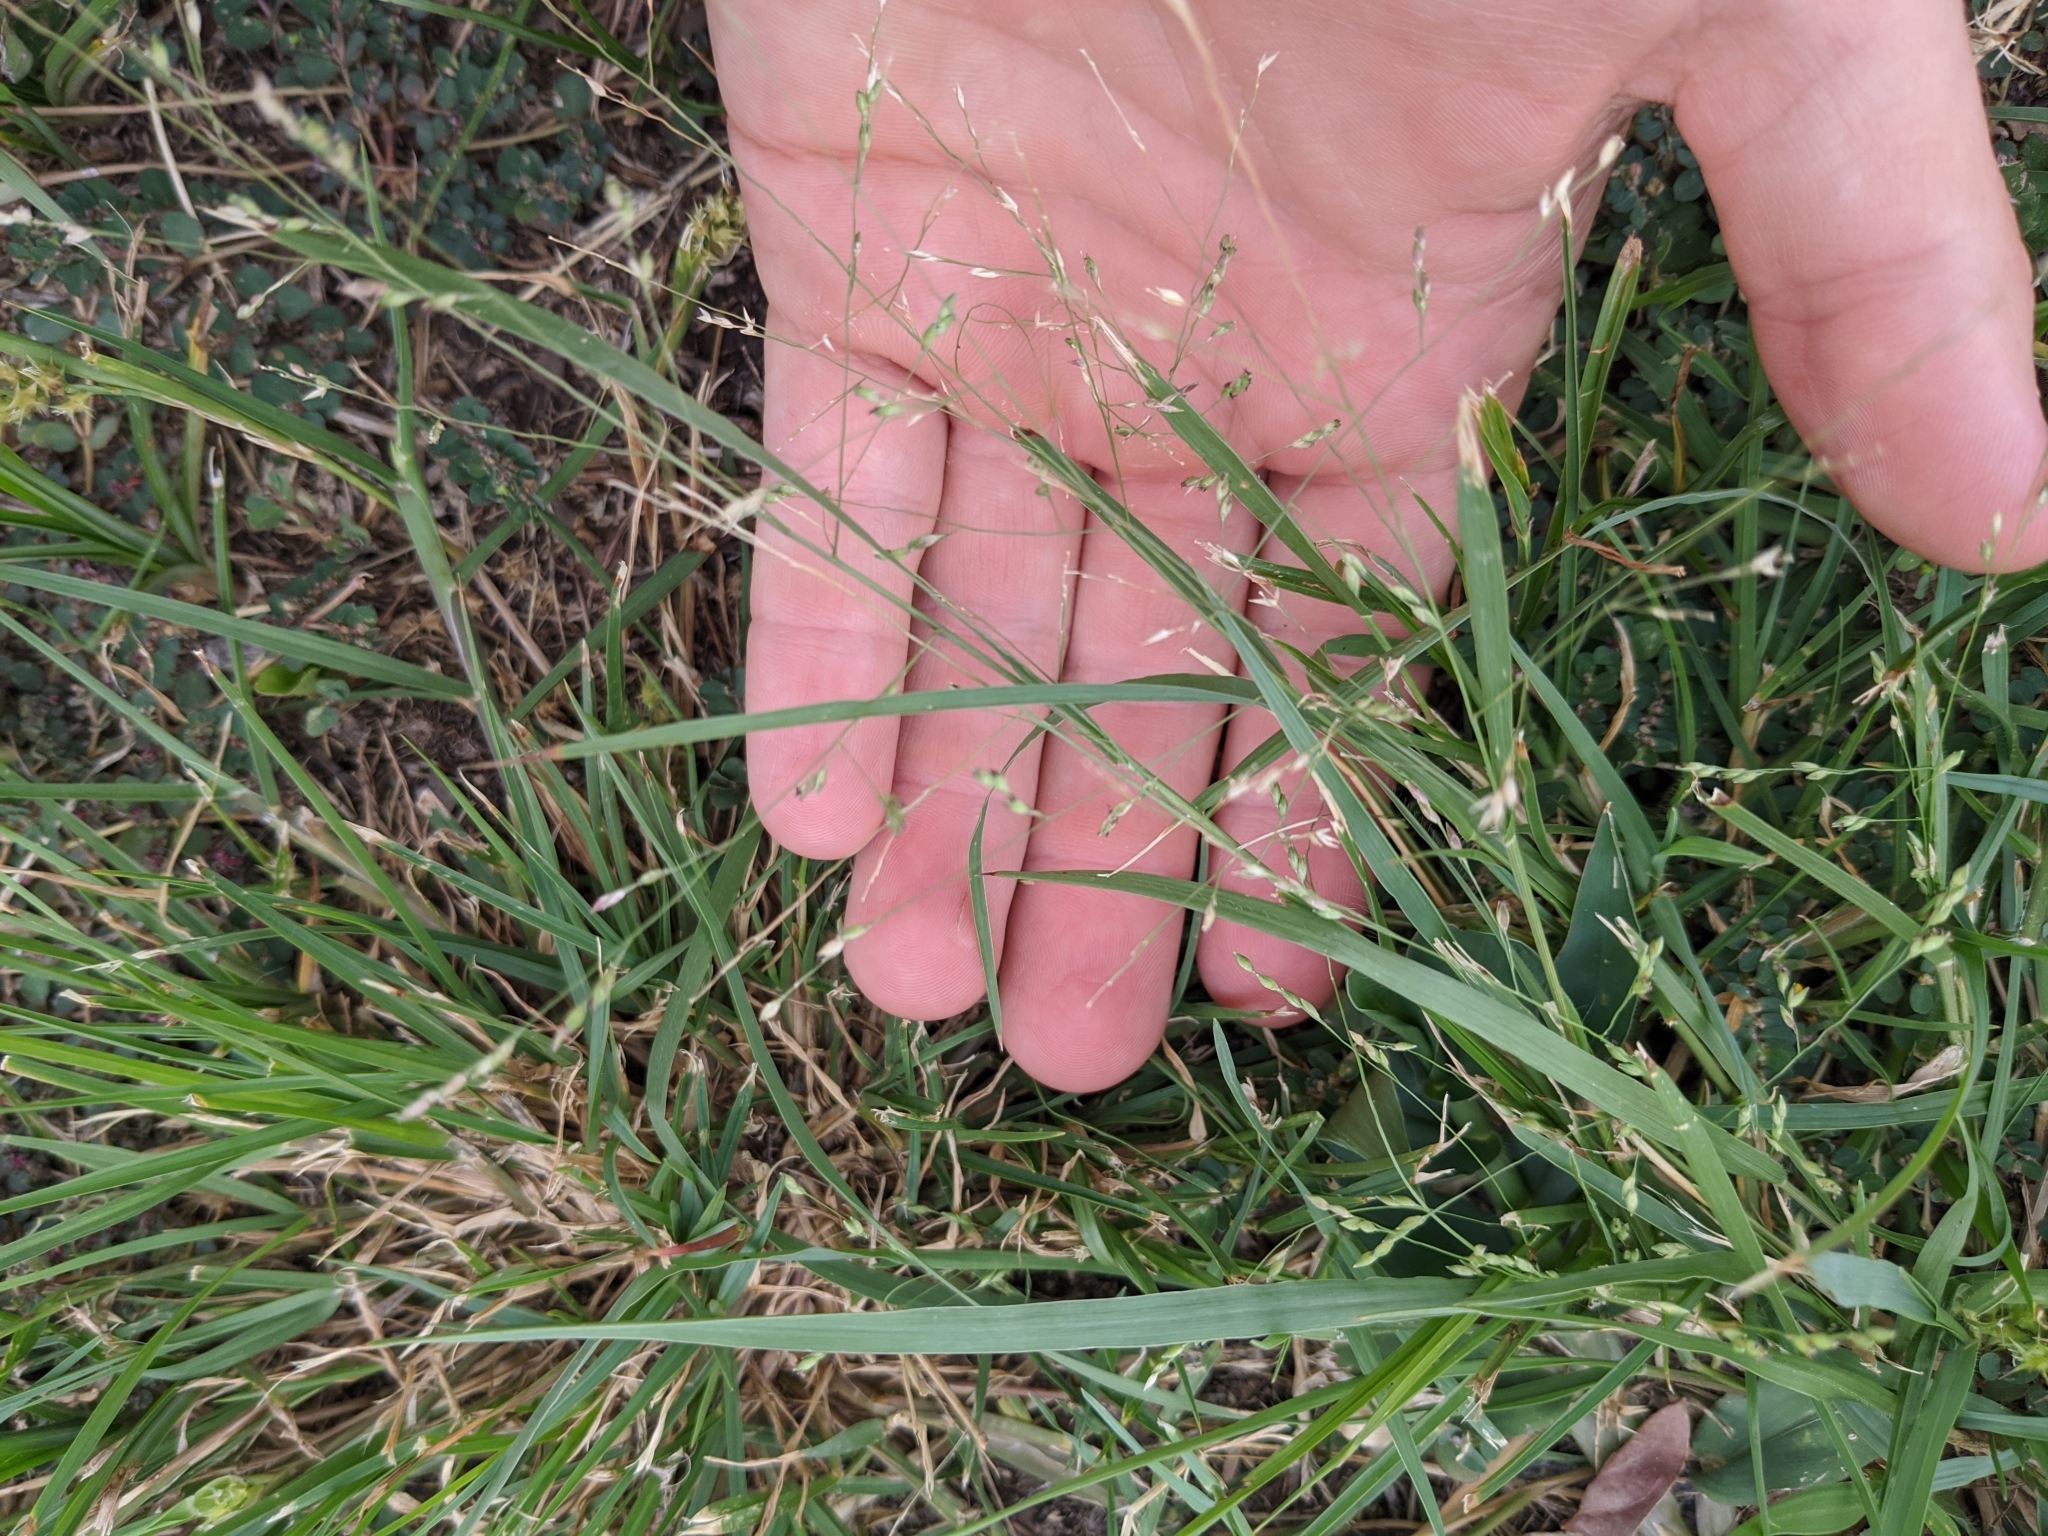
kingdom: Plantae
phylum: Tracheophyta
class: Liliopsida
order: Poales
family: Poaceae
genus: Panicum
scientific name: Panicum hallii
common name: Hall's witchgrass
